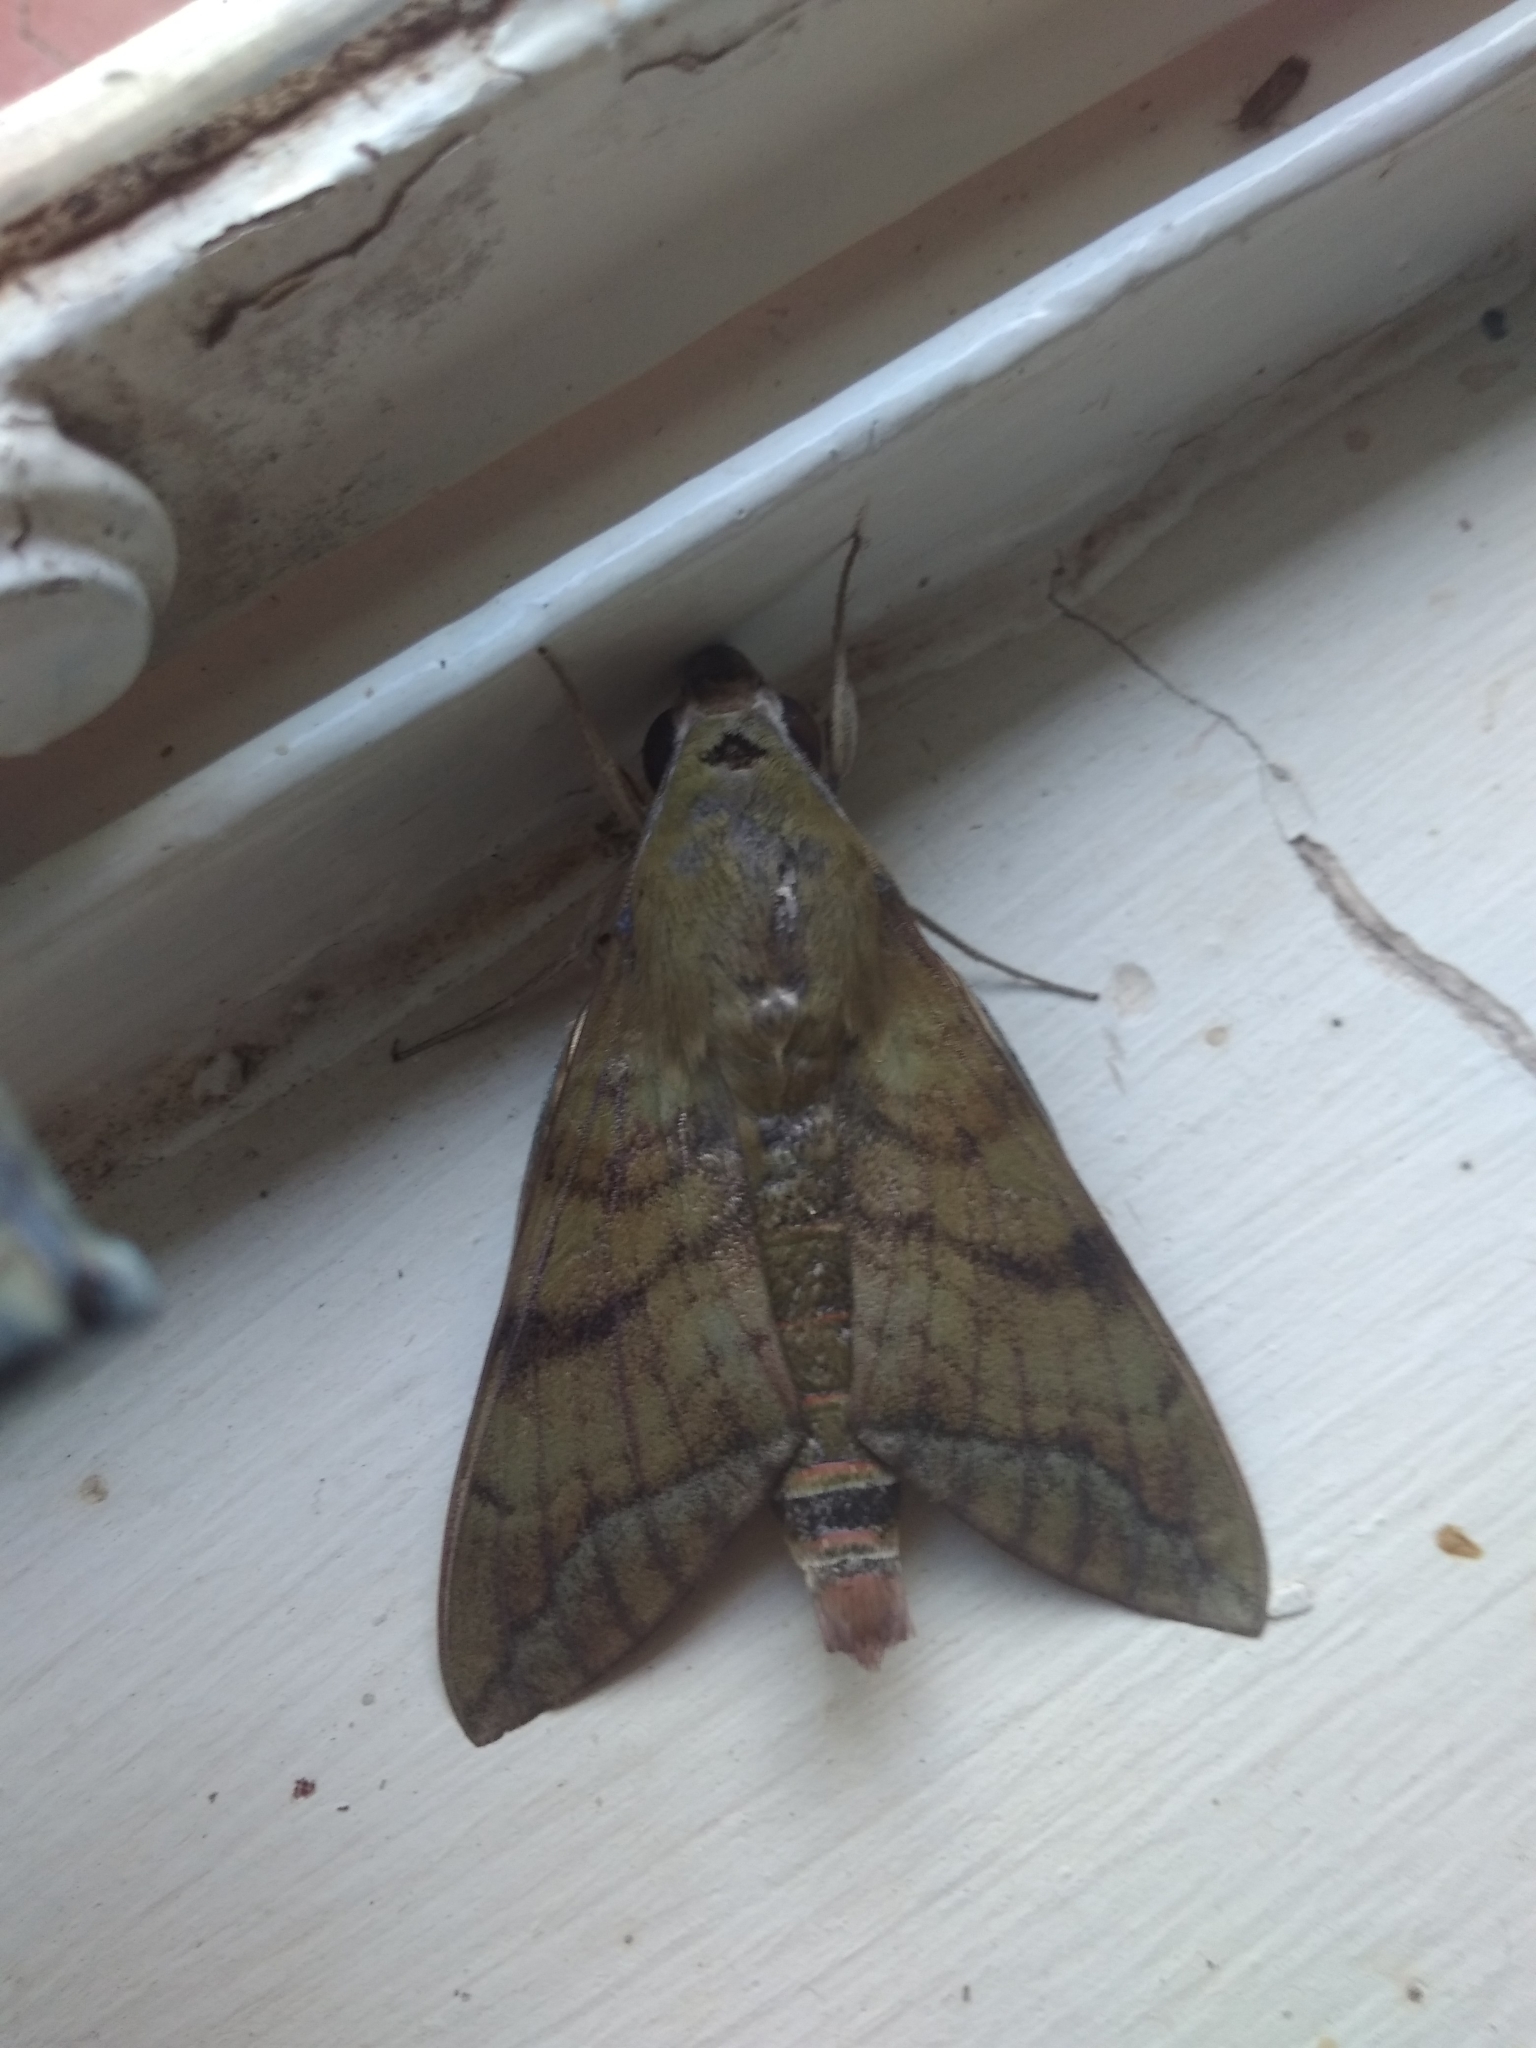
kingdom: Animalia
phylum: Arthropoda
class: Insecta
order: Lepidoptera
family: Sphingidae
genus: Nephele
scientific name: Nephele comma
